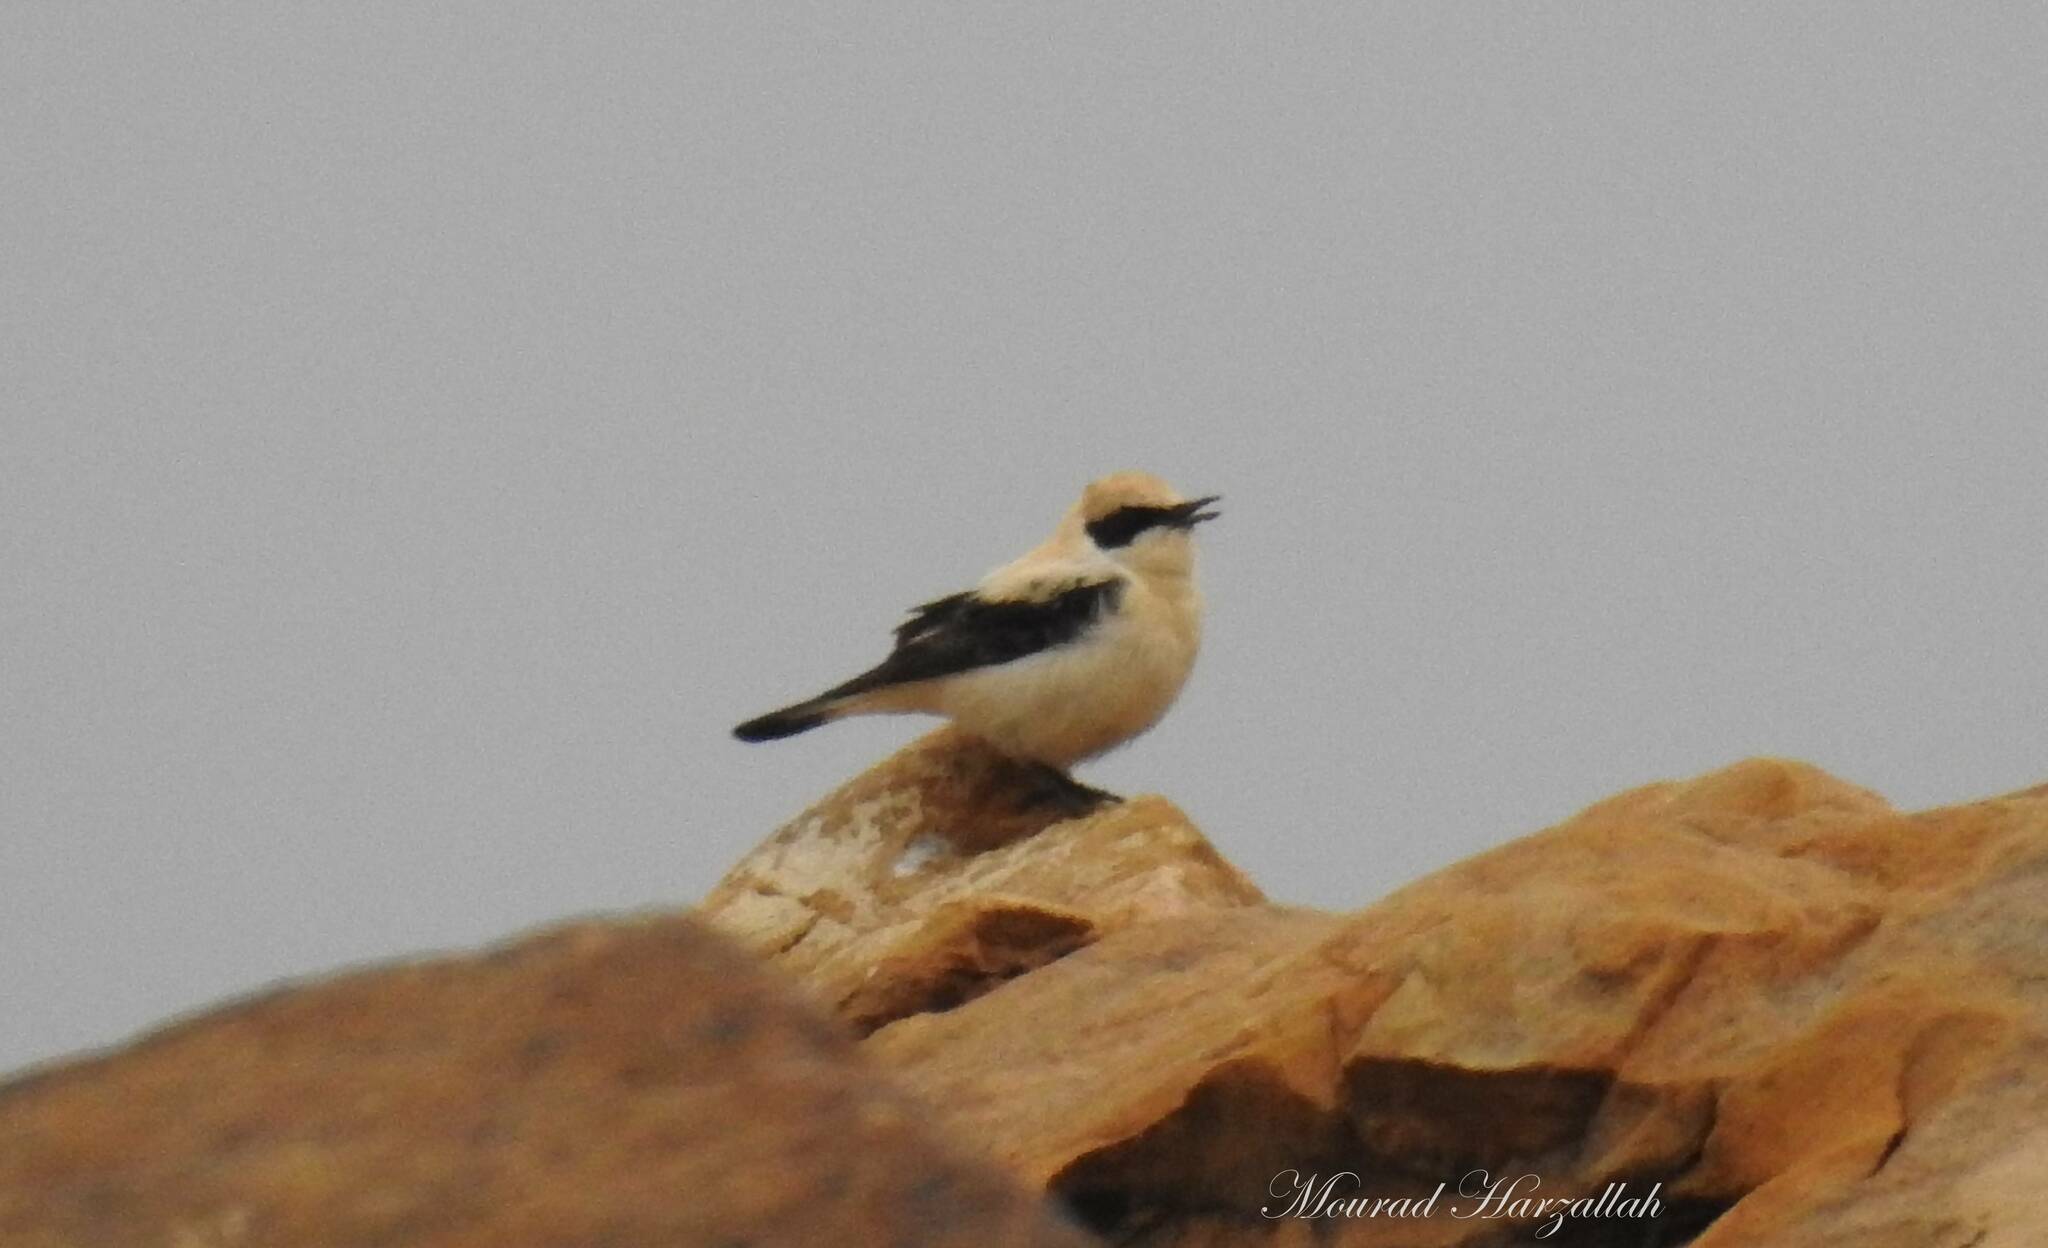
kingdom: Animalia
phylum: Chordata
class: Aves
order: Passeriformes
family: Muscicapidae
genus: Oenanthe
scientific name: Oenanthe hispanica
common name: Black-eared wheatear
